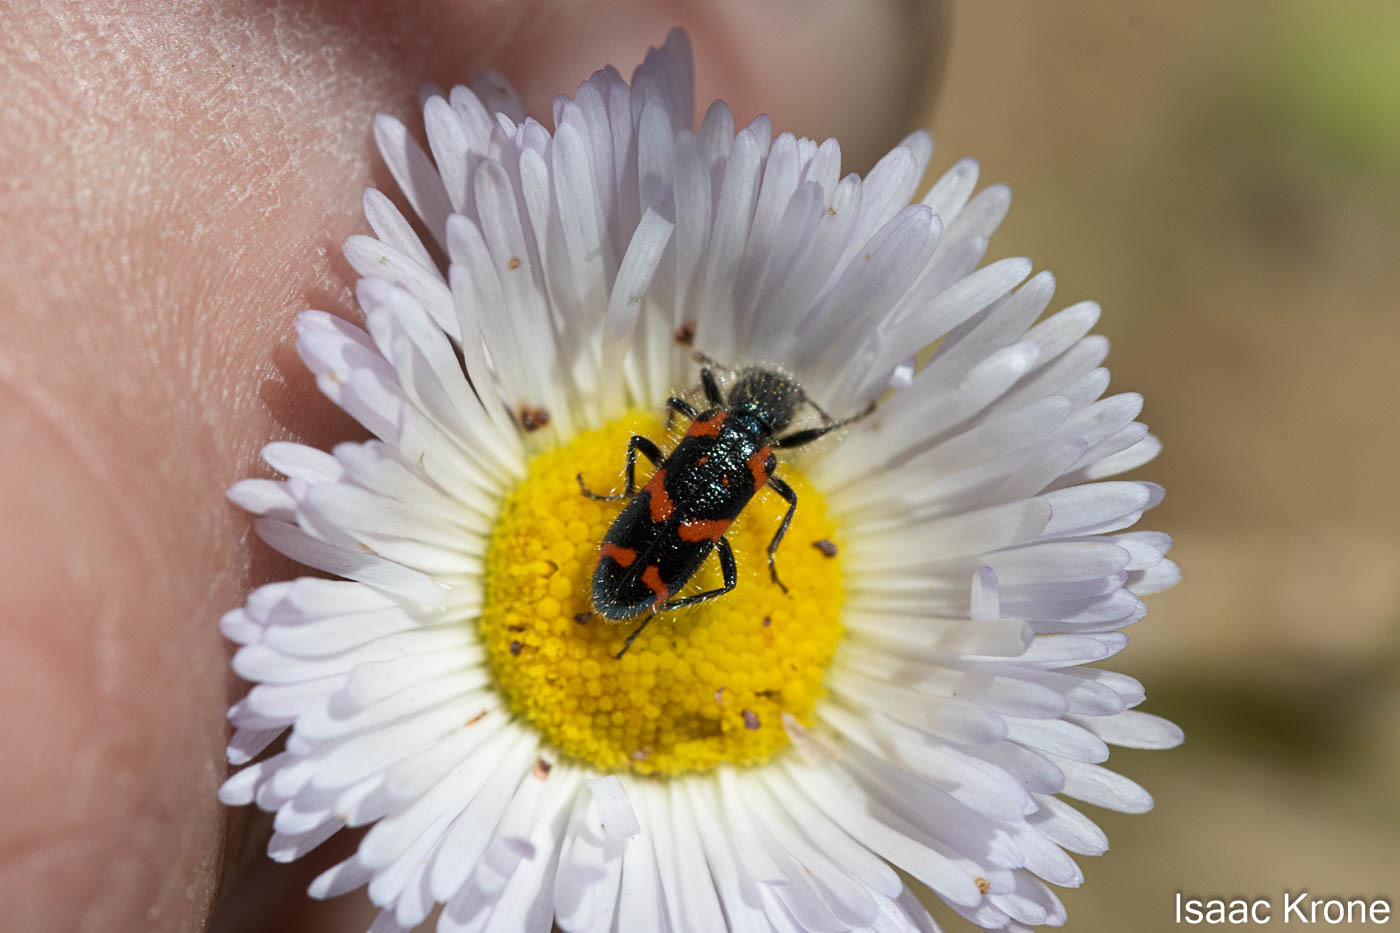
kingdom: Animalia
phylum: Arthropoda
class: Insecta
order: Coleoptera
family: Cleridae
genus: Trichodes
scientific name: Trichodes ornatus
